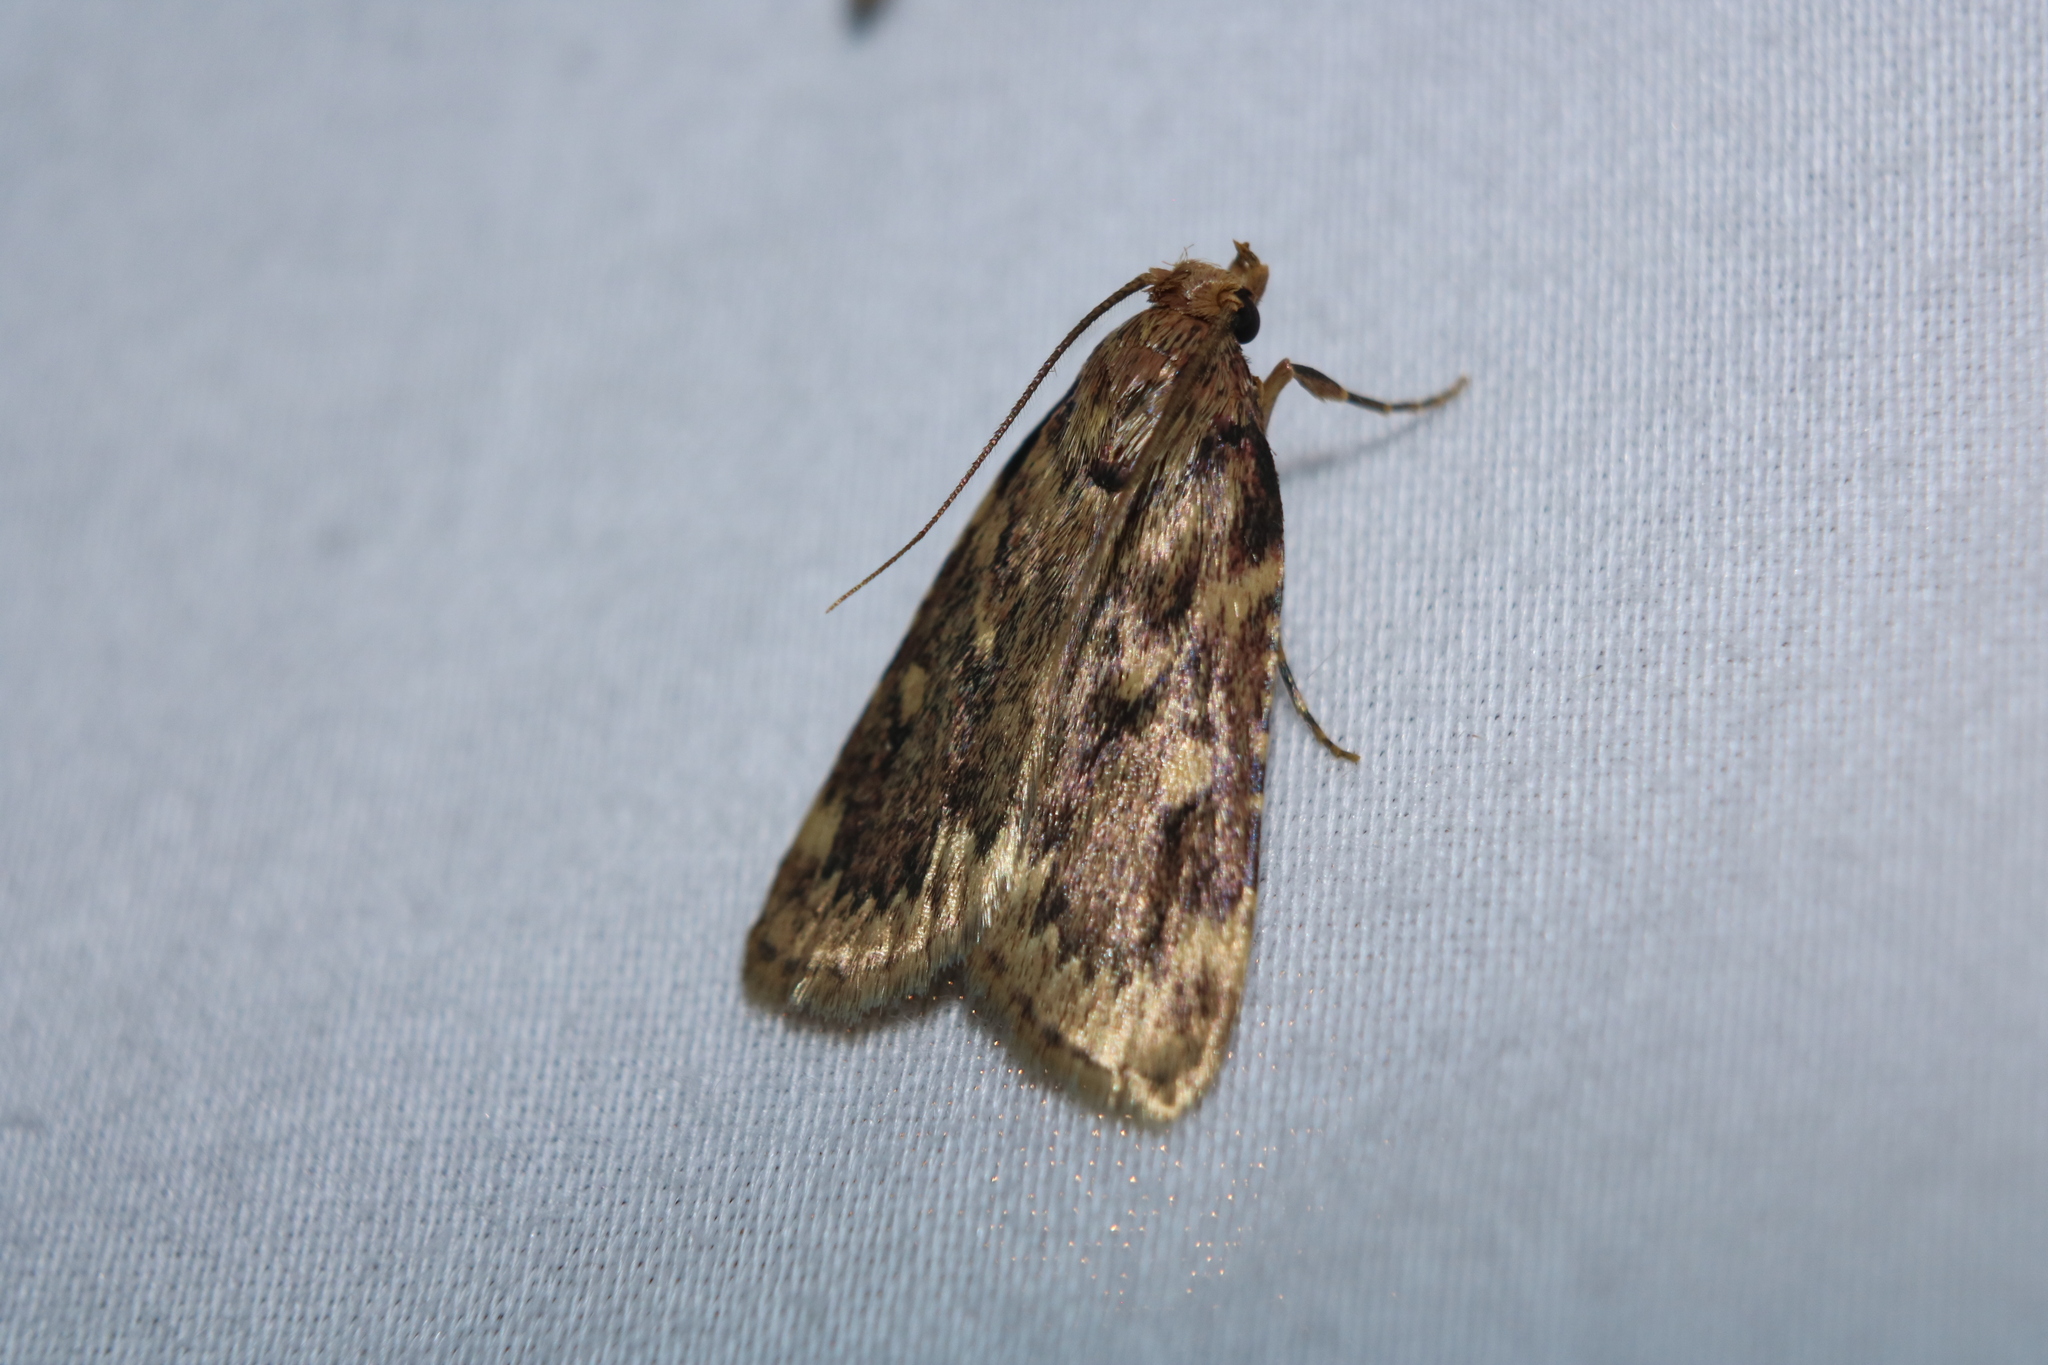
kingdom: Animalia
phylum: Arthropoda
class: Insecta
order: Lepidoptera
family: Pyralidae
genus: Aglossa
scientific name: Aglossa cuprina
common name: Grease moth
